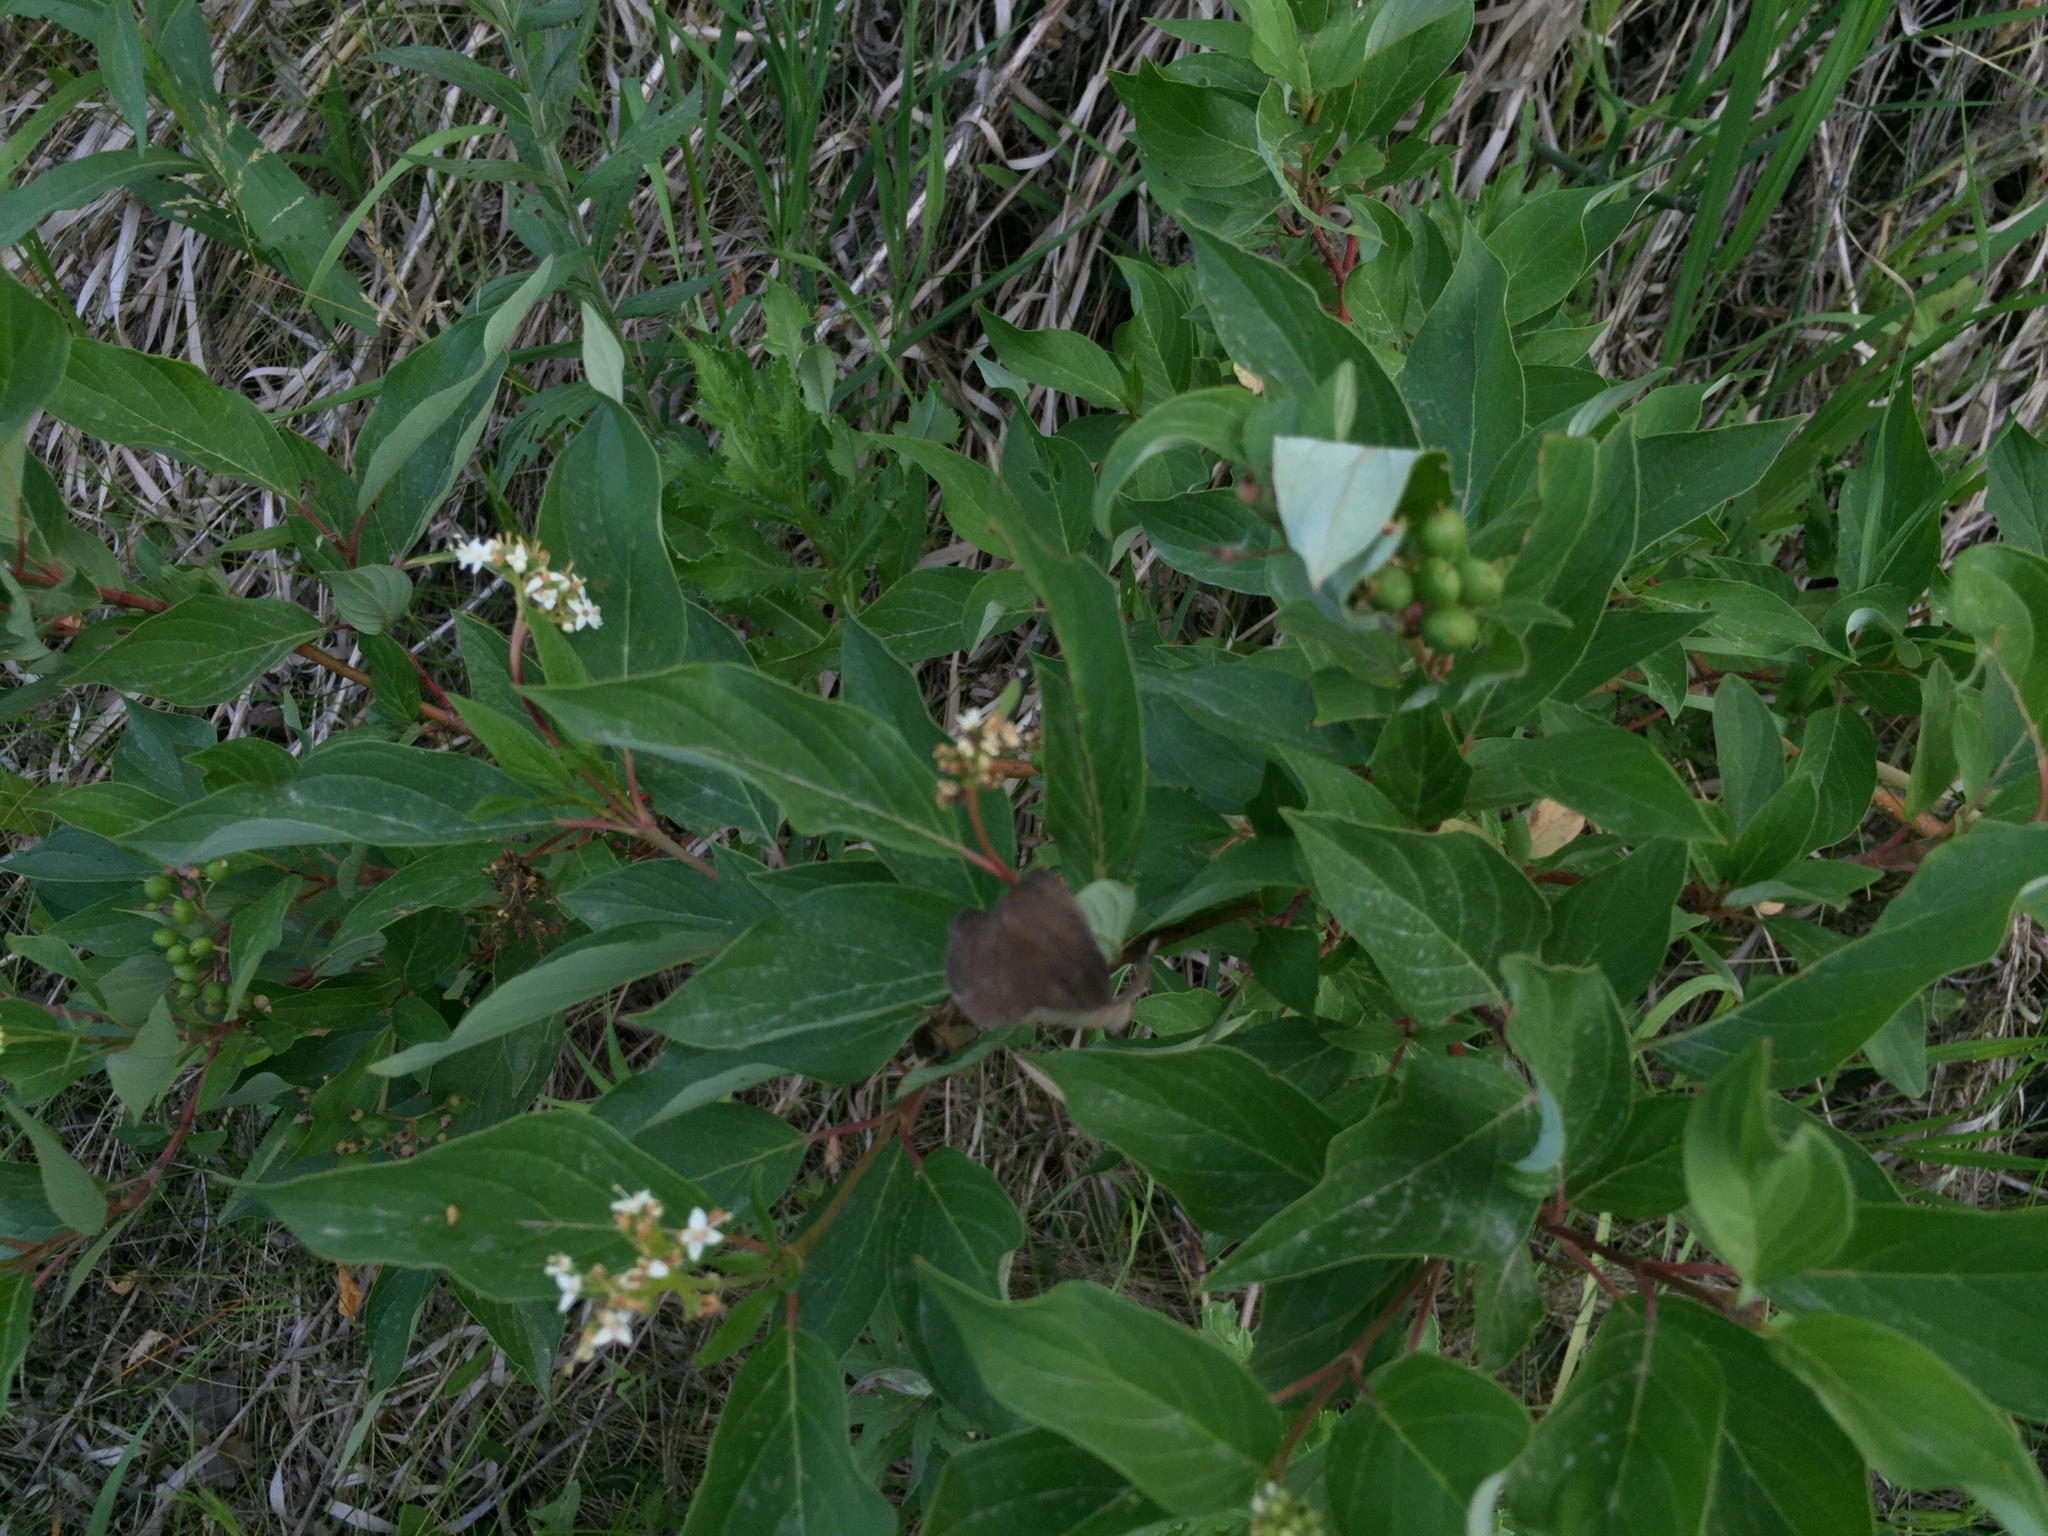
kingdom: Plantae
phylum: Tracheophyta
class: Magnoliopsida
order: Cornales
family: Cornaceae
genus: Cornus
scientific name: Cornus sericea
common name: Red-osier dogwood
